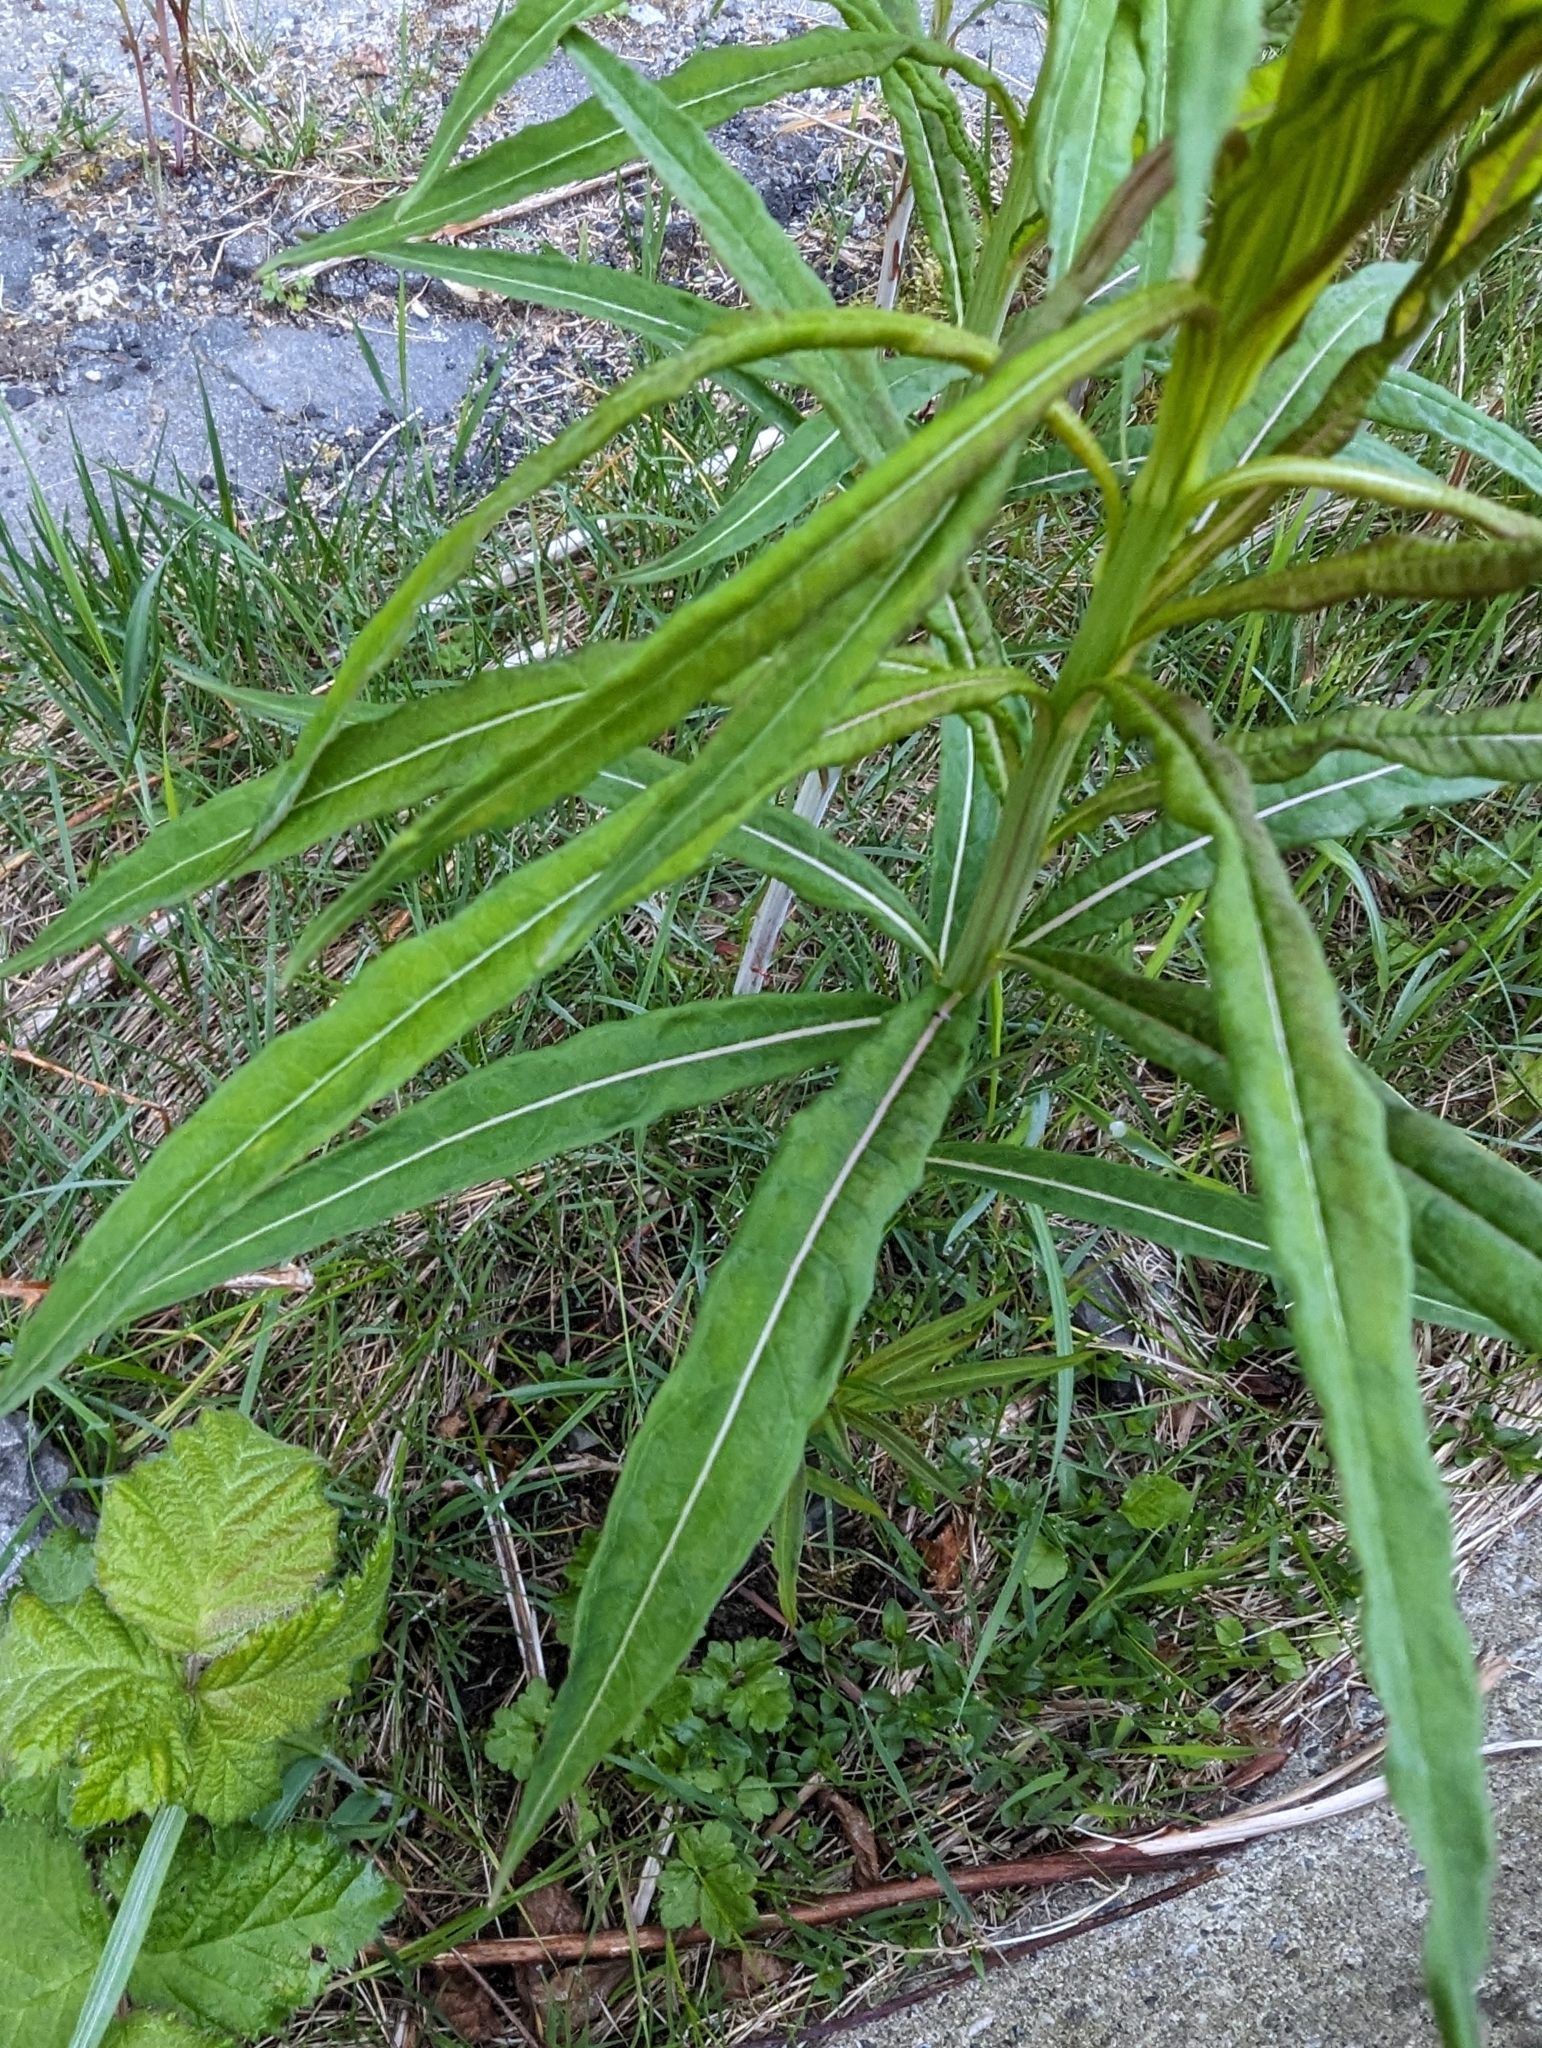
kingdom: Plantae
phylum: Tracheophyta
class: Magnoliopsida
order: Myrtales
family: Onagraceae
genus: Chamaenerion
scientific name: Chamaenerion angustifolium
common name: Fireweed
